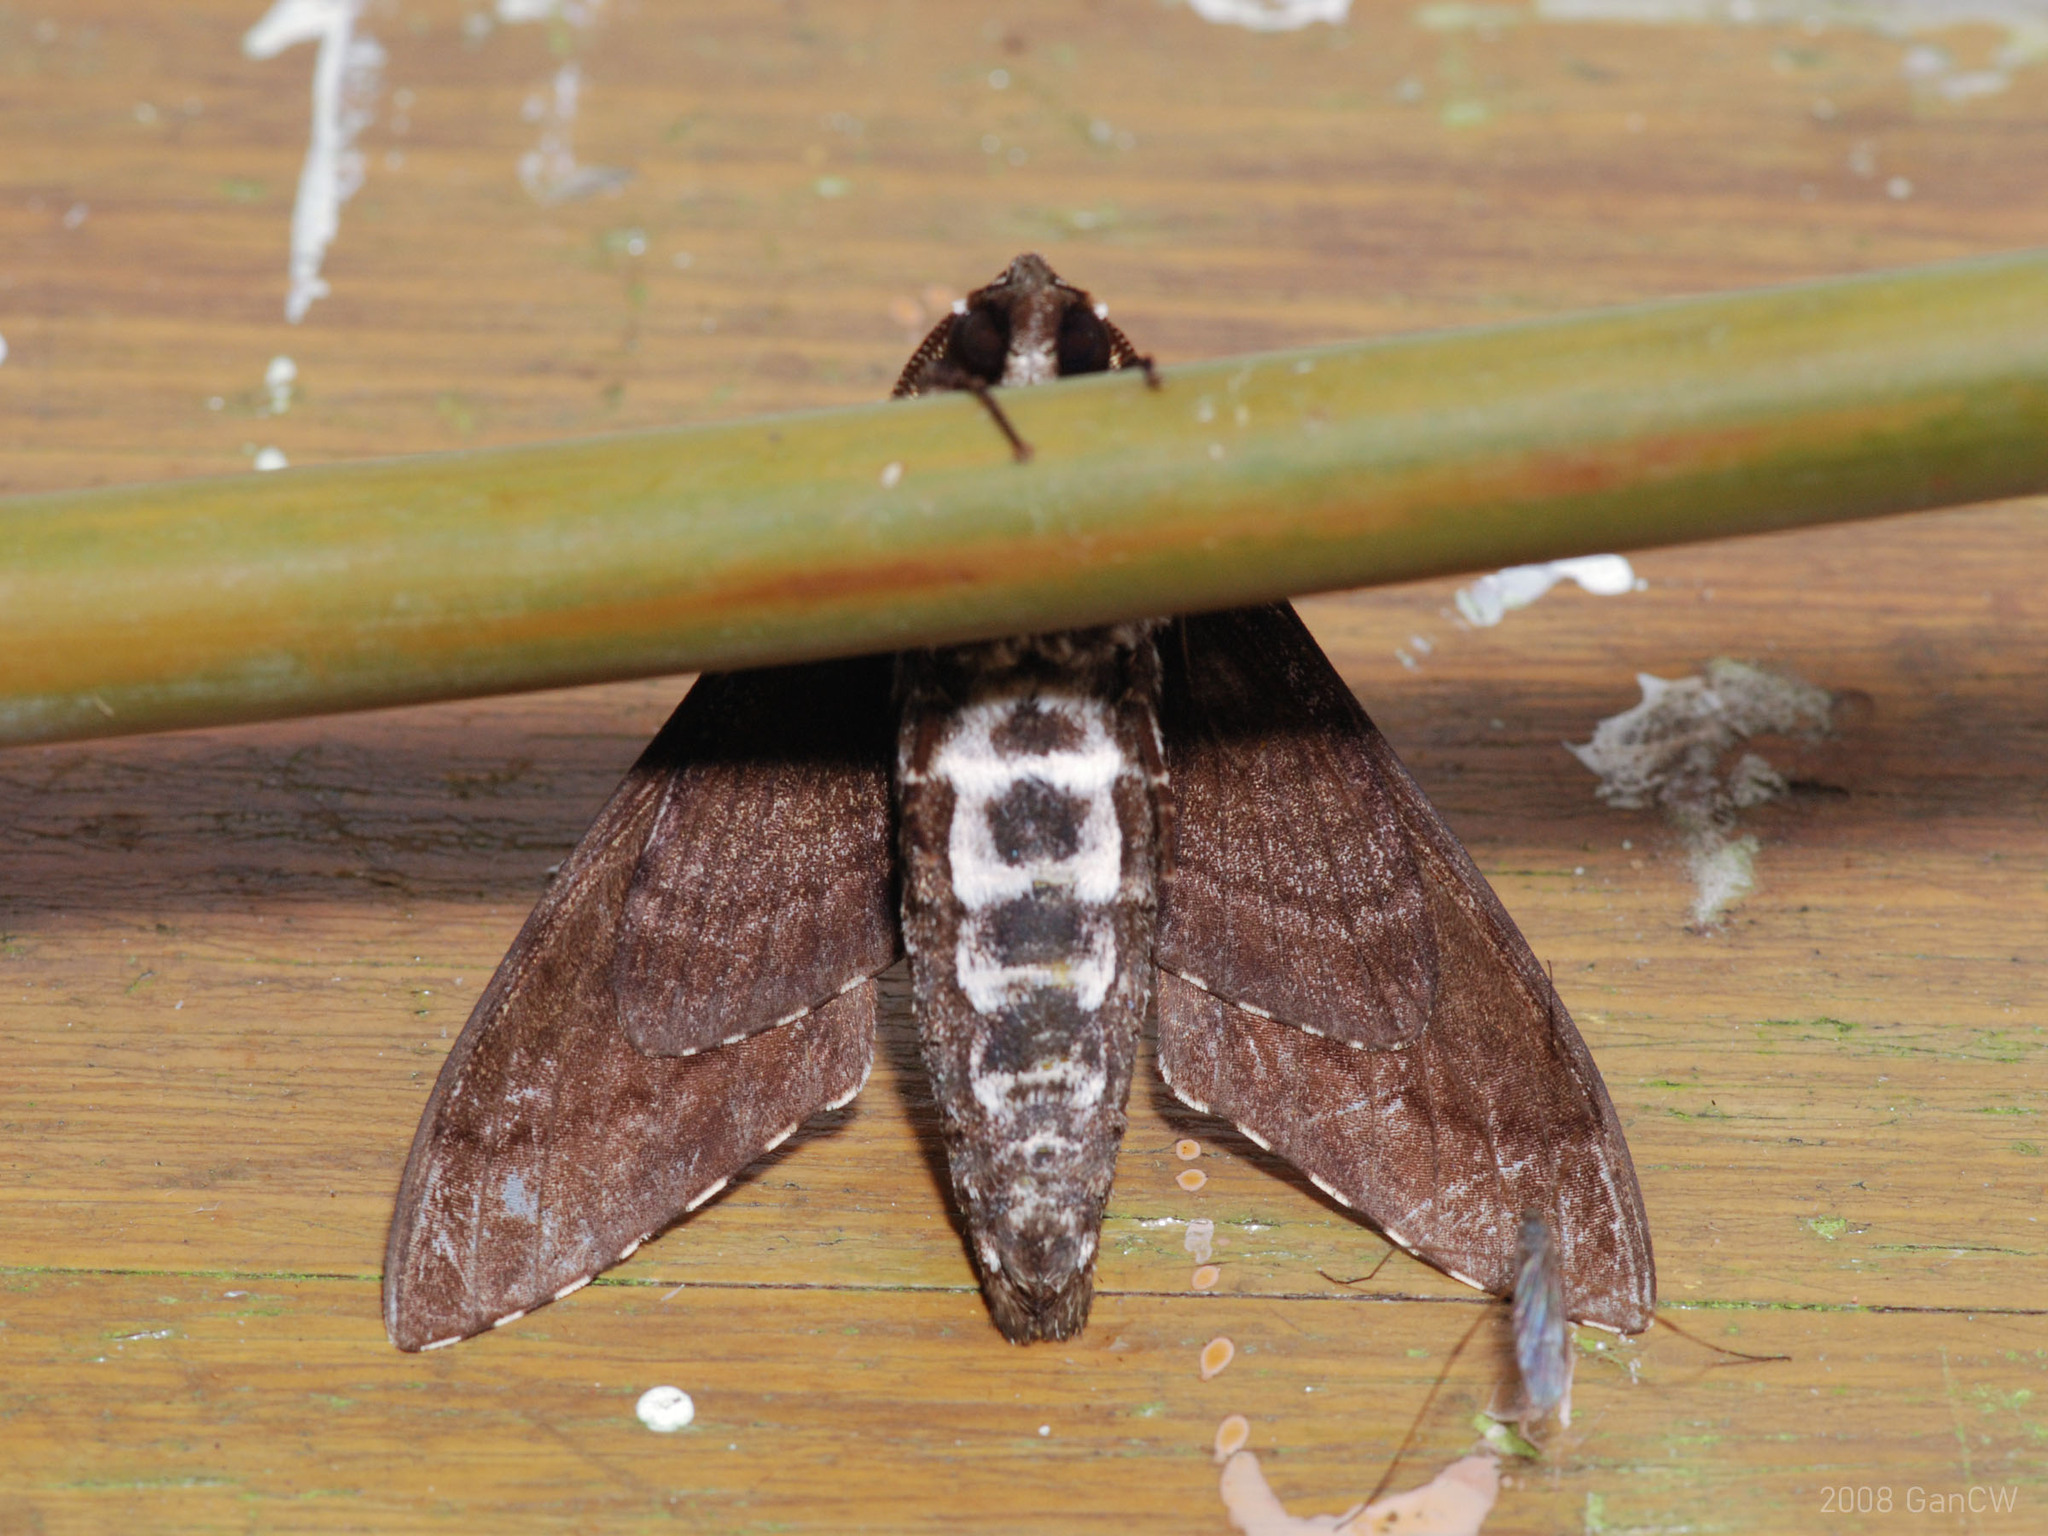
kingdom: Animalia
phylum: Arthropoda
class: Insecta
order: Lepidoptera
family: Sphingidae
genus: Dolbina
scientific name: Dolbina krikkeni
